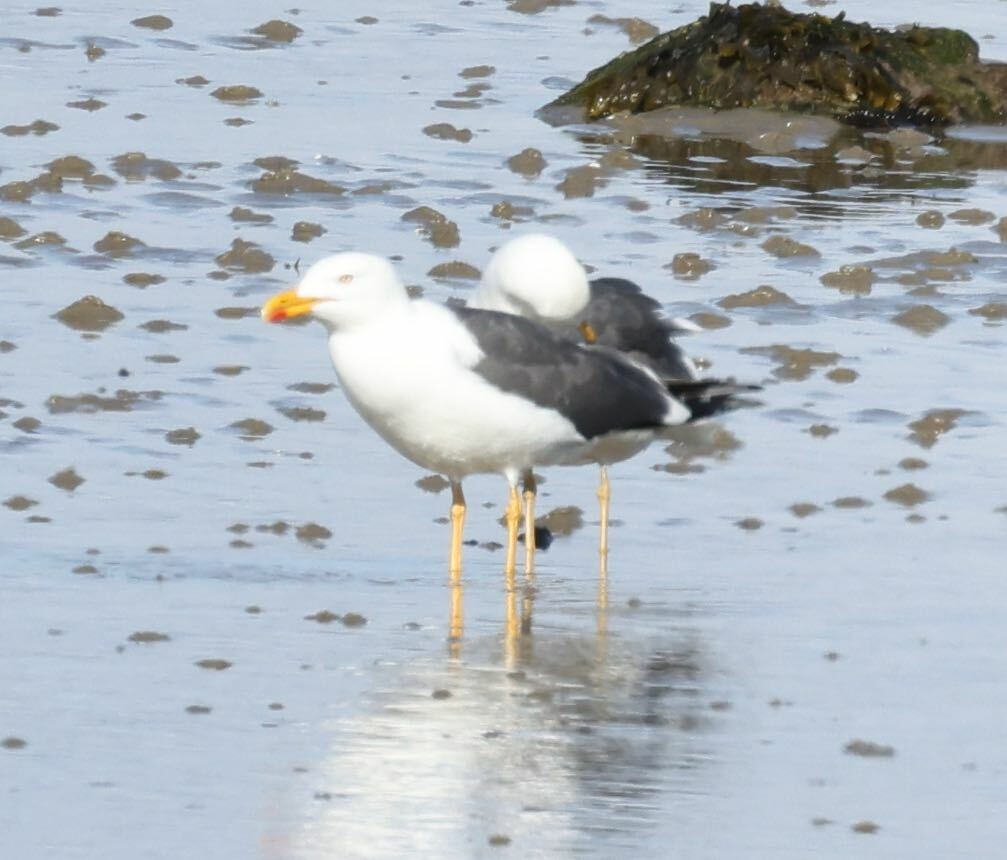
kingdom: Animalia
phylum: Chordata
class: Aves
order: Charadriiformes
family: Laridae
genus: Larus
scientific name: Larus fuscus
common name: Lesser black-backed gull
